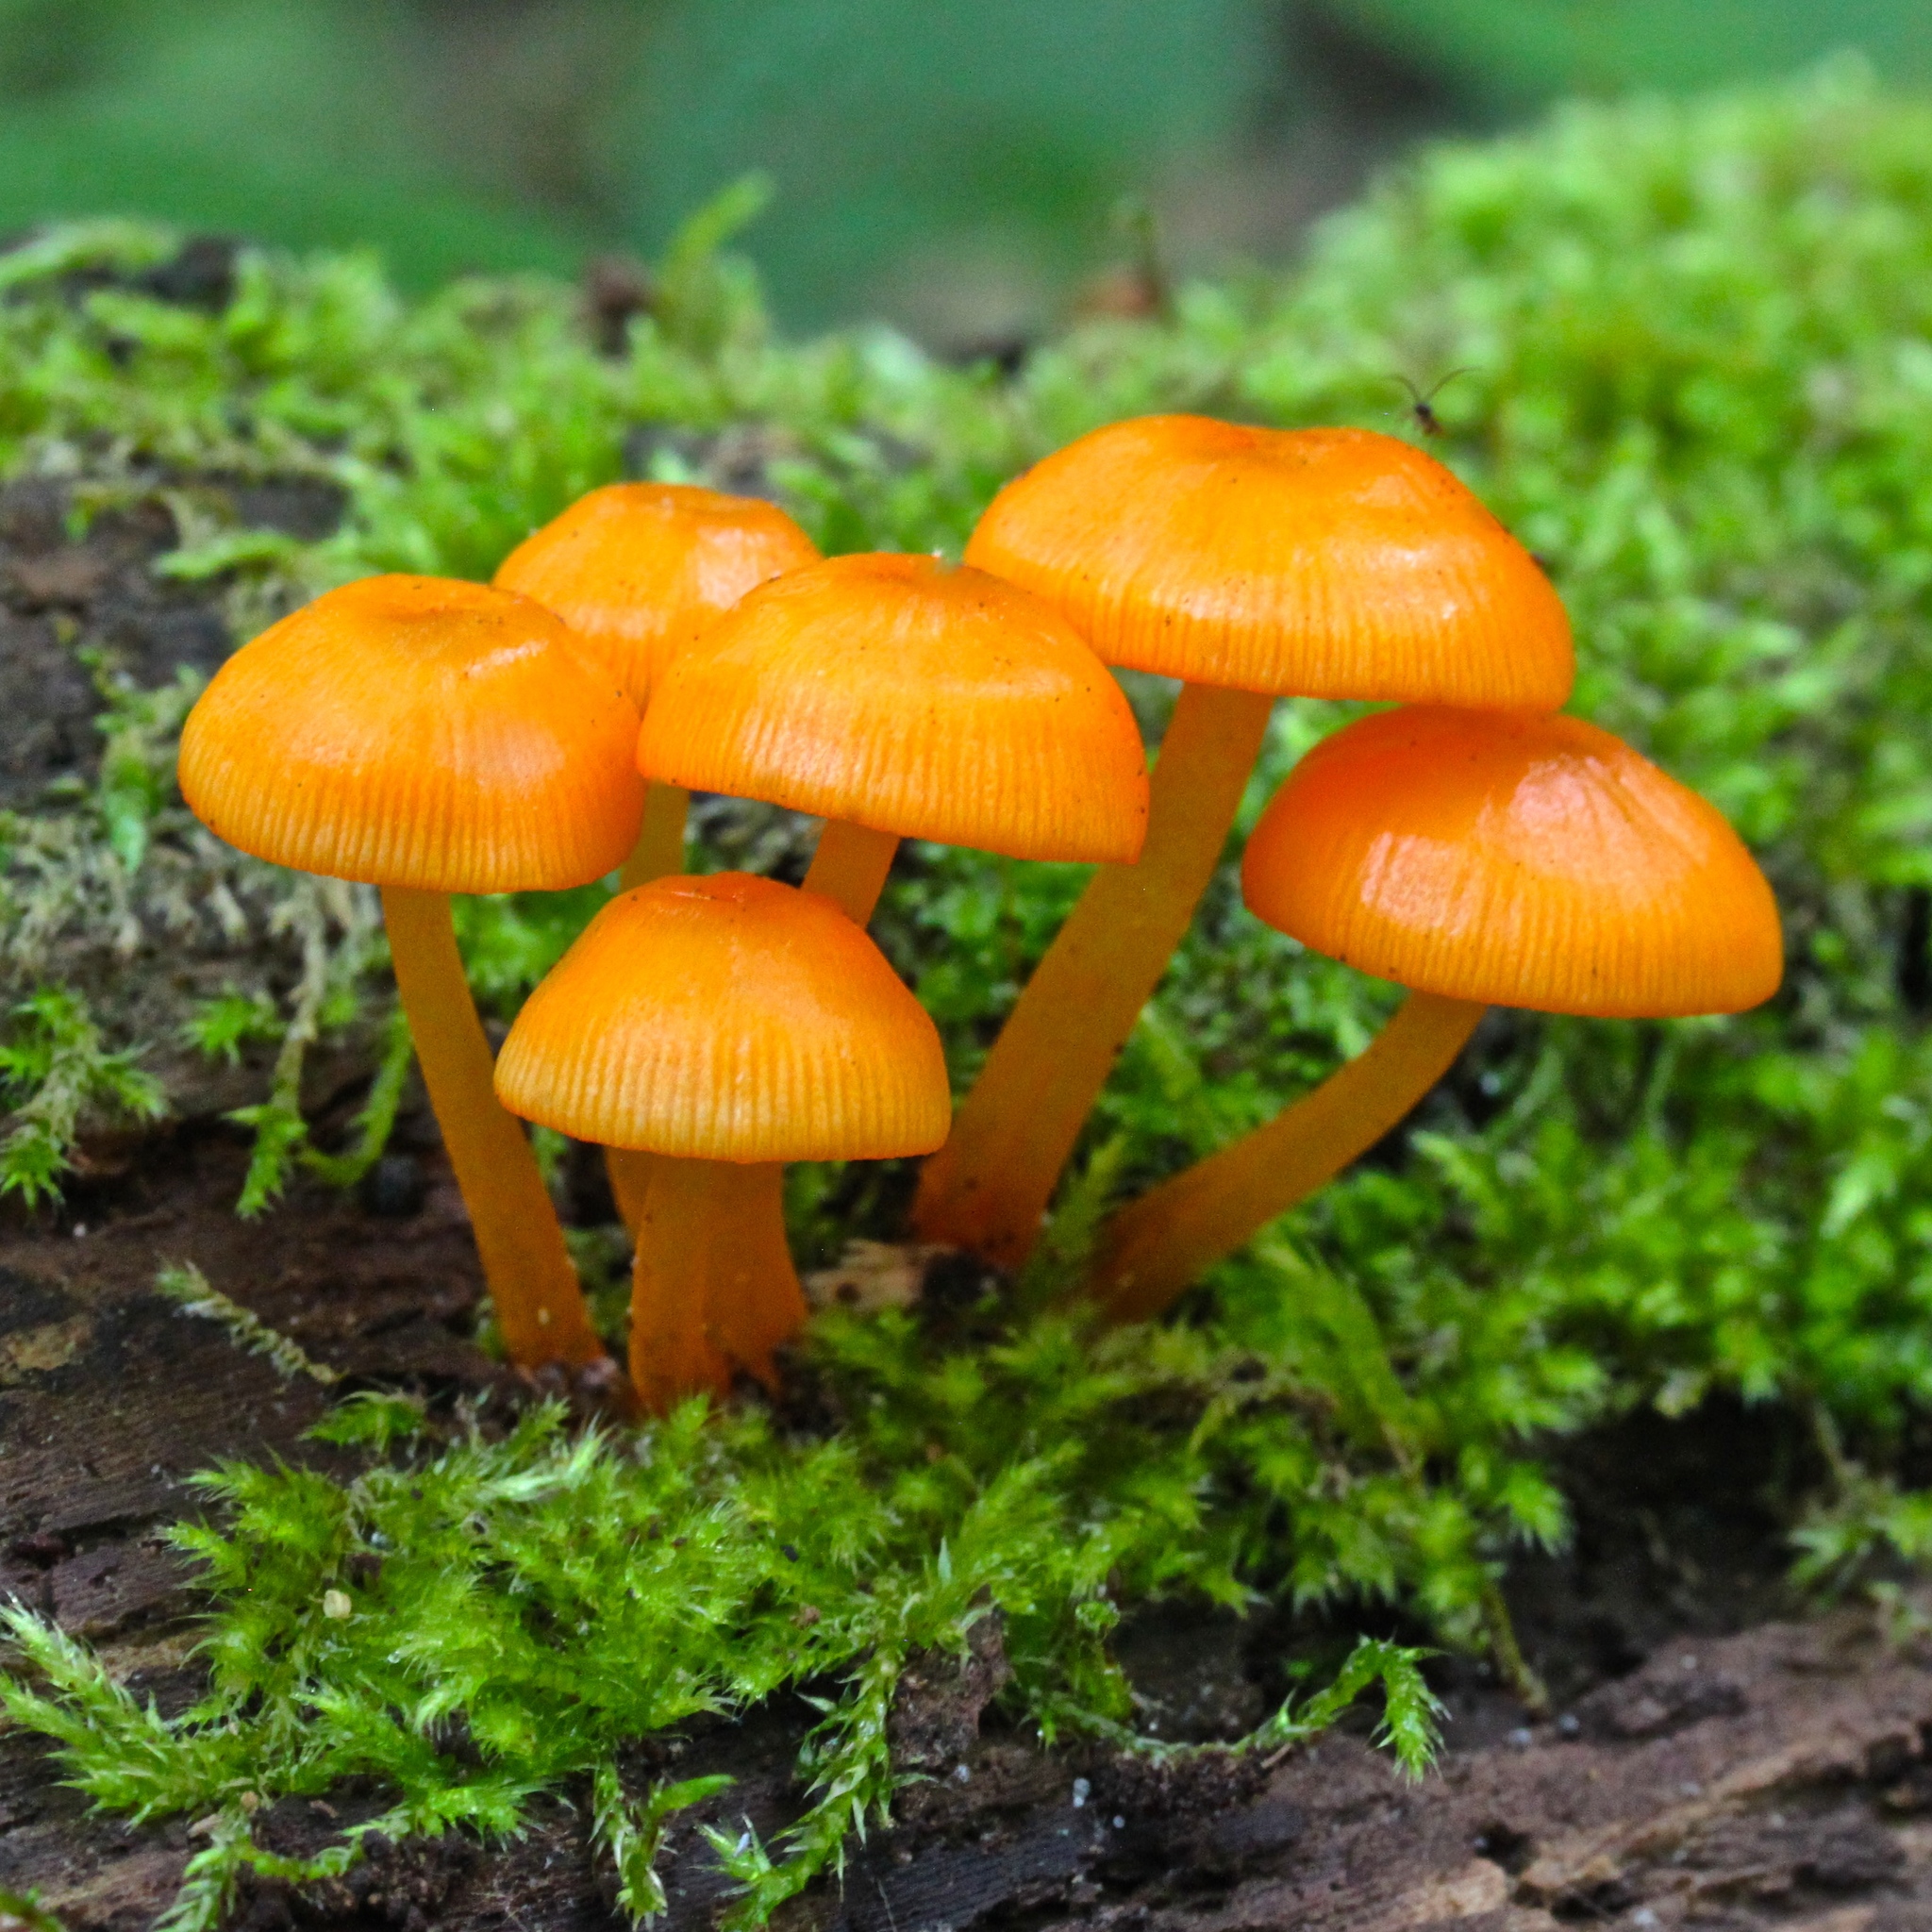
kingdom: Fungi
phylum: Basidiomycota
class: Agaricomycetes
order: Agaricales
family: Mycenaceae
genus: Mycena
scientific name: Mycena leaiana
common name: Orange mycena
